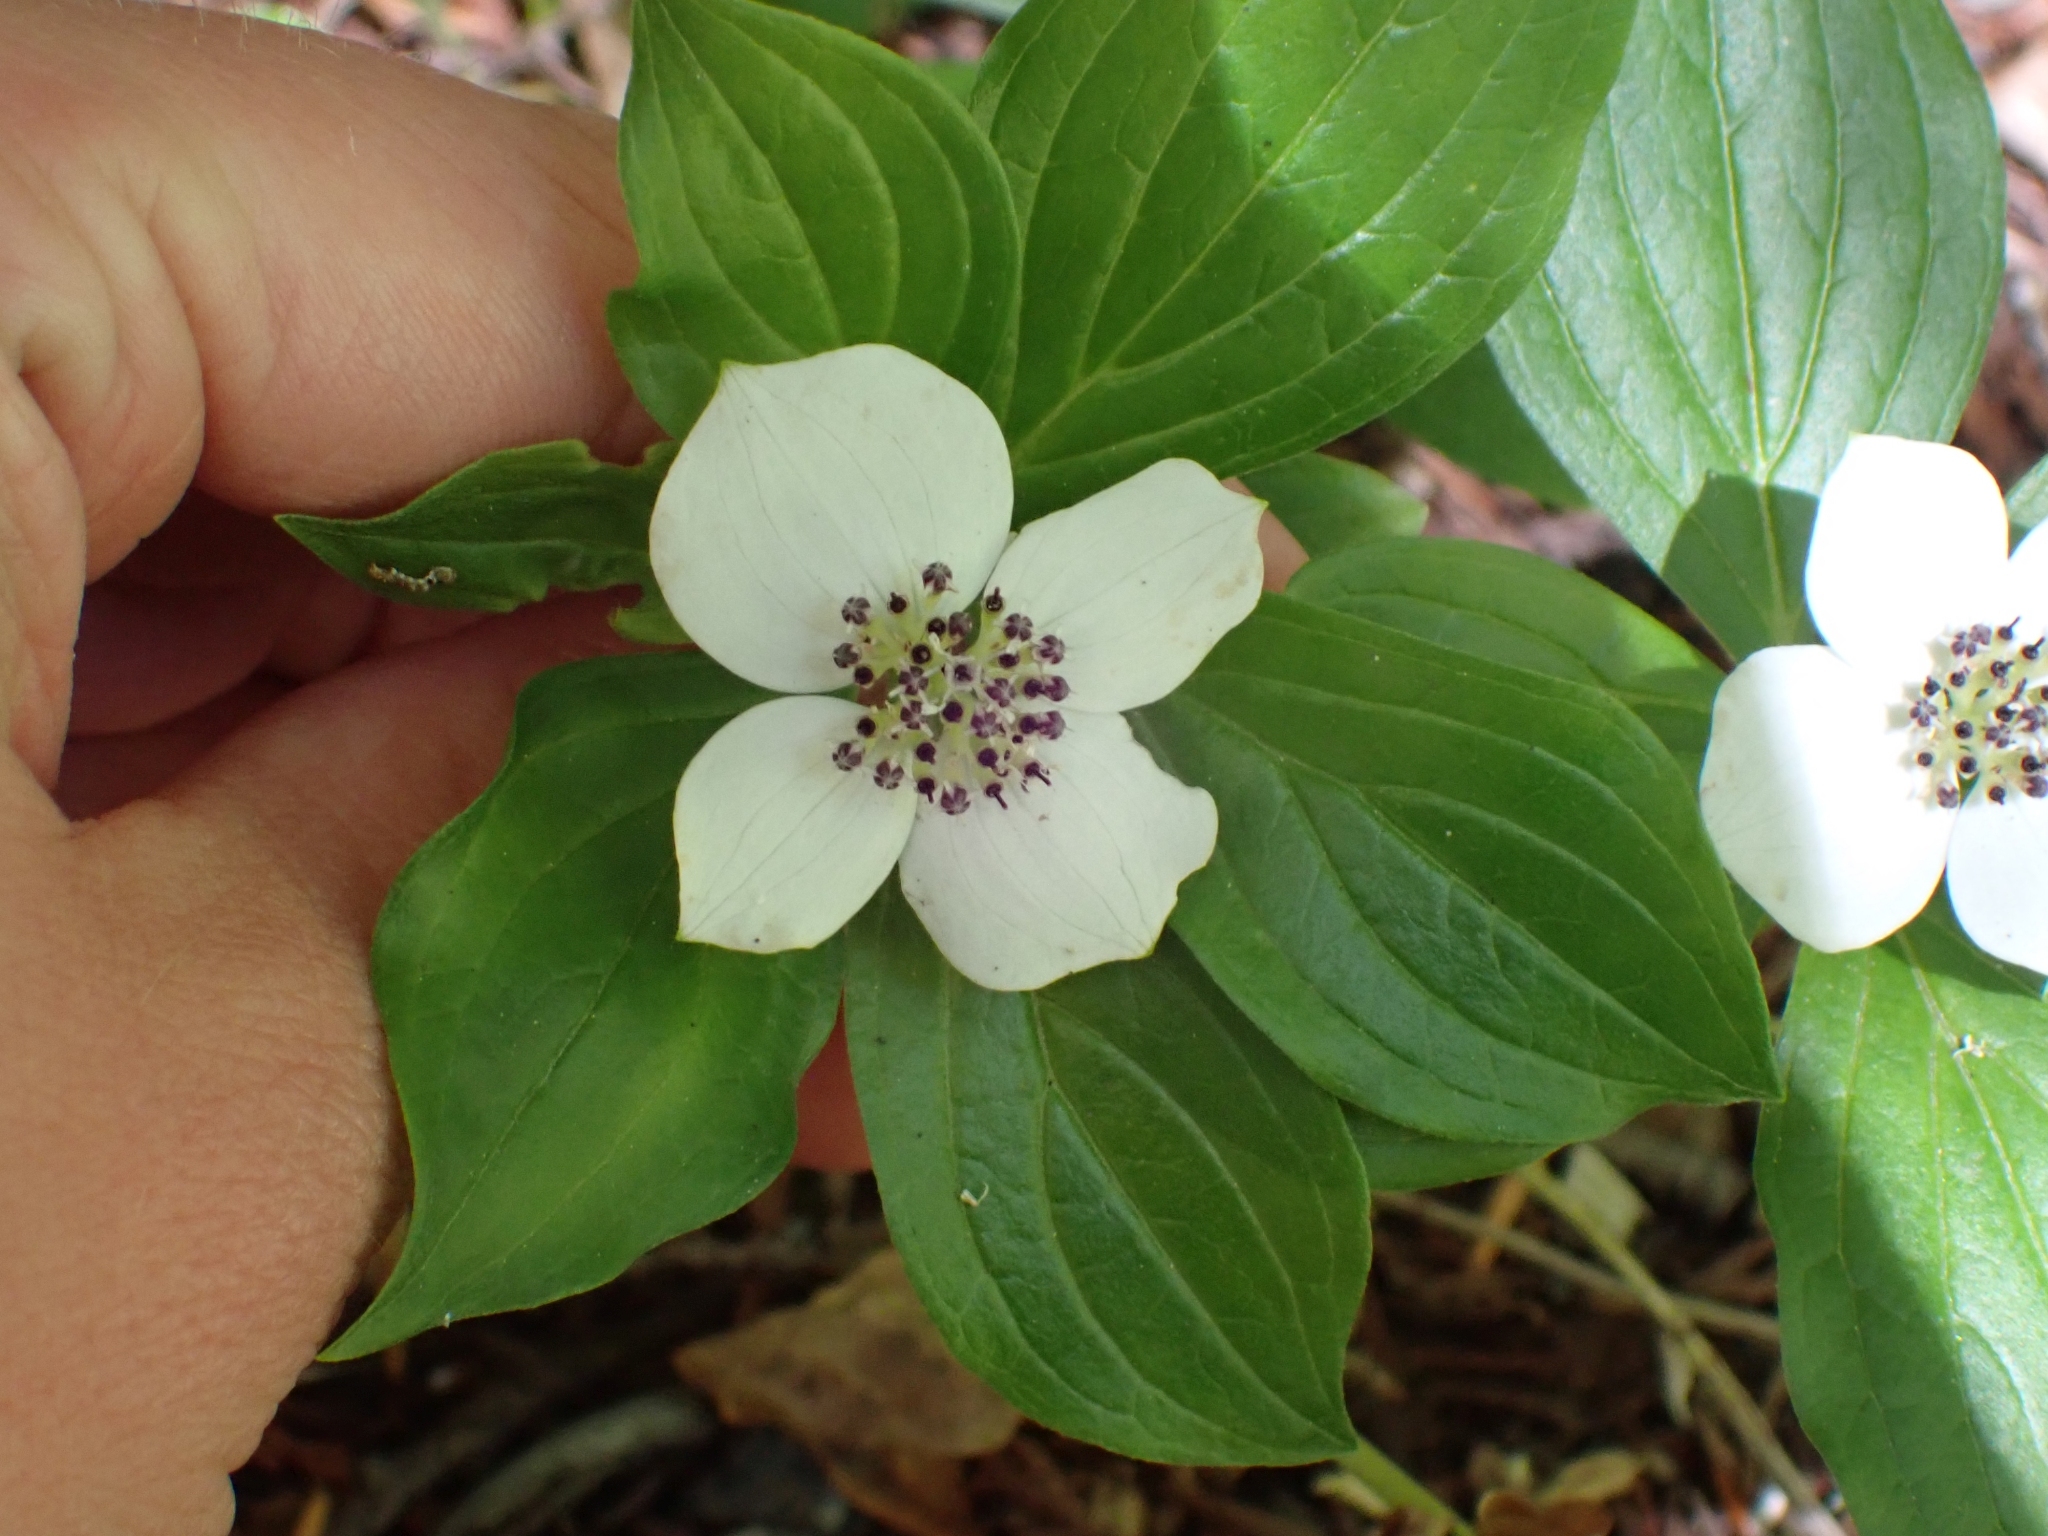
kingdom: Plantae
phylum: Tracheophyta
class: Magnoliopsida
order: Cornales
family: Cornaceae
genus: Cornus
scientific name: Cornus unalaschkensis
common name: Alaska bunchberry
